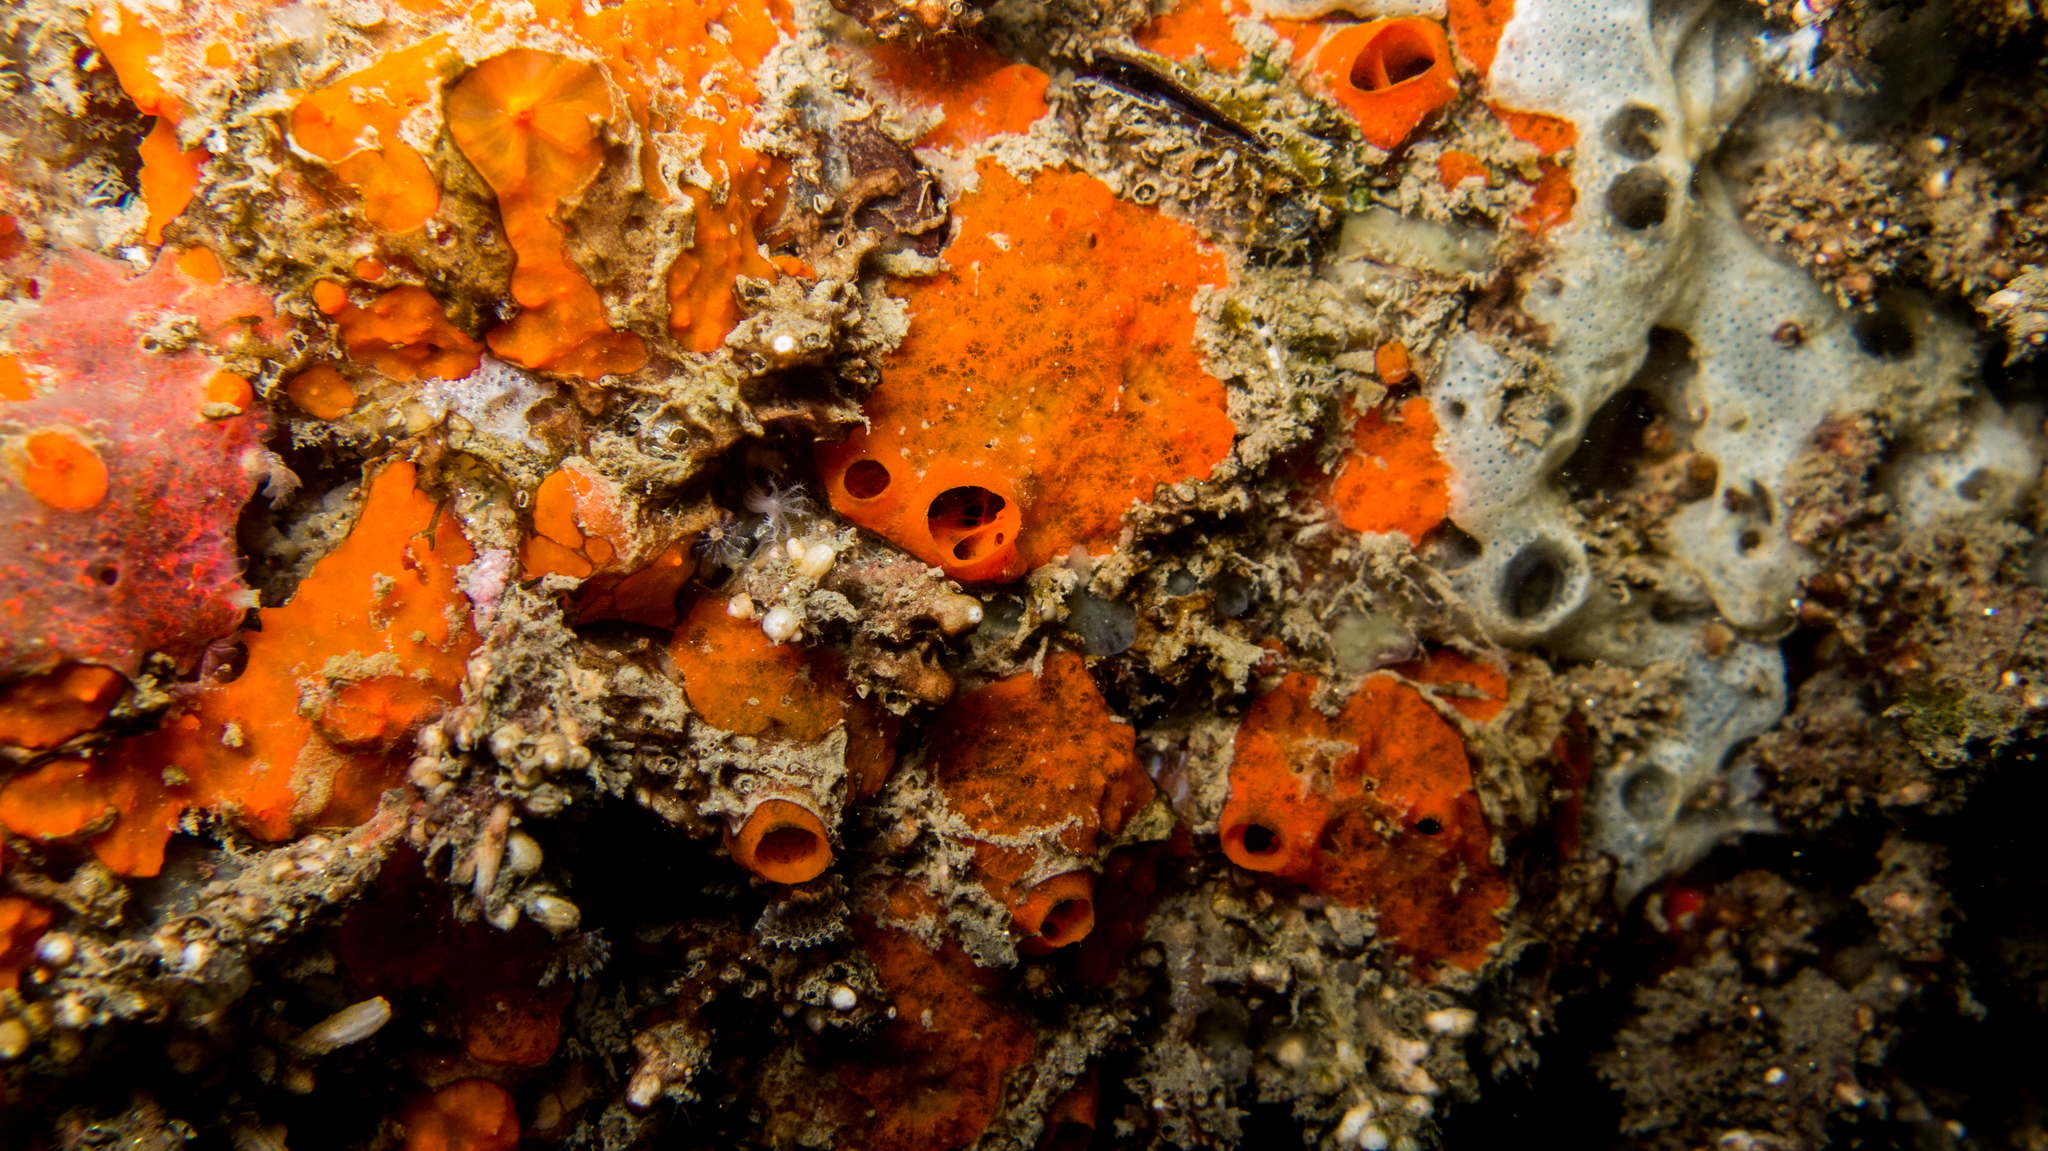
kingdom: Animalia
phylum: Porifera
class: Demospongiae
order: Poecilosclerida
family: Tedaniidae
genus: Tedania
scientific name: Tedania ignis
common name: Sponge
